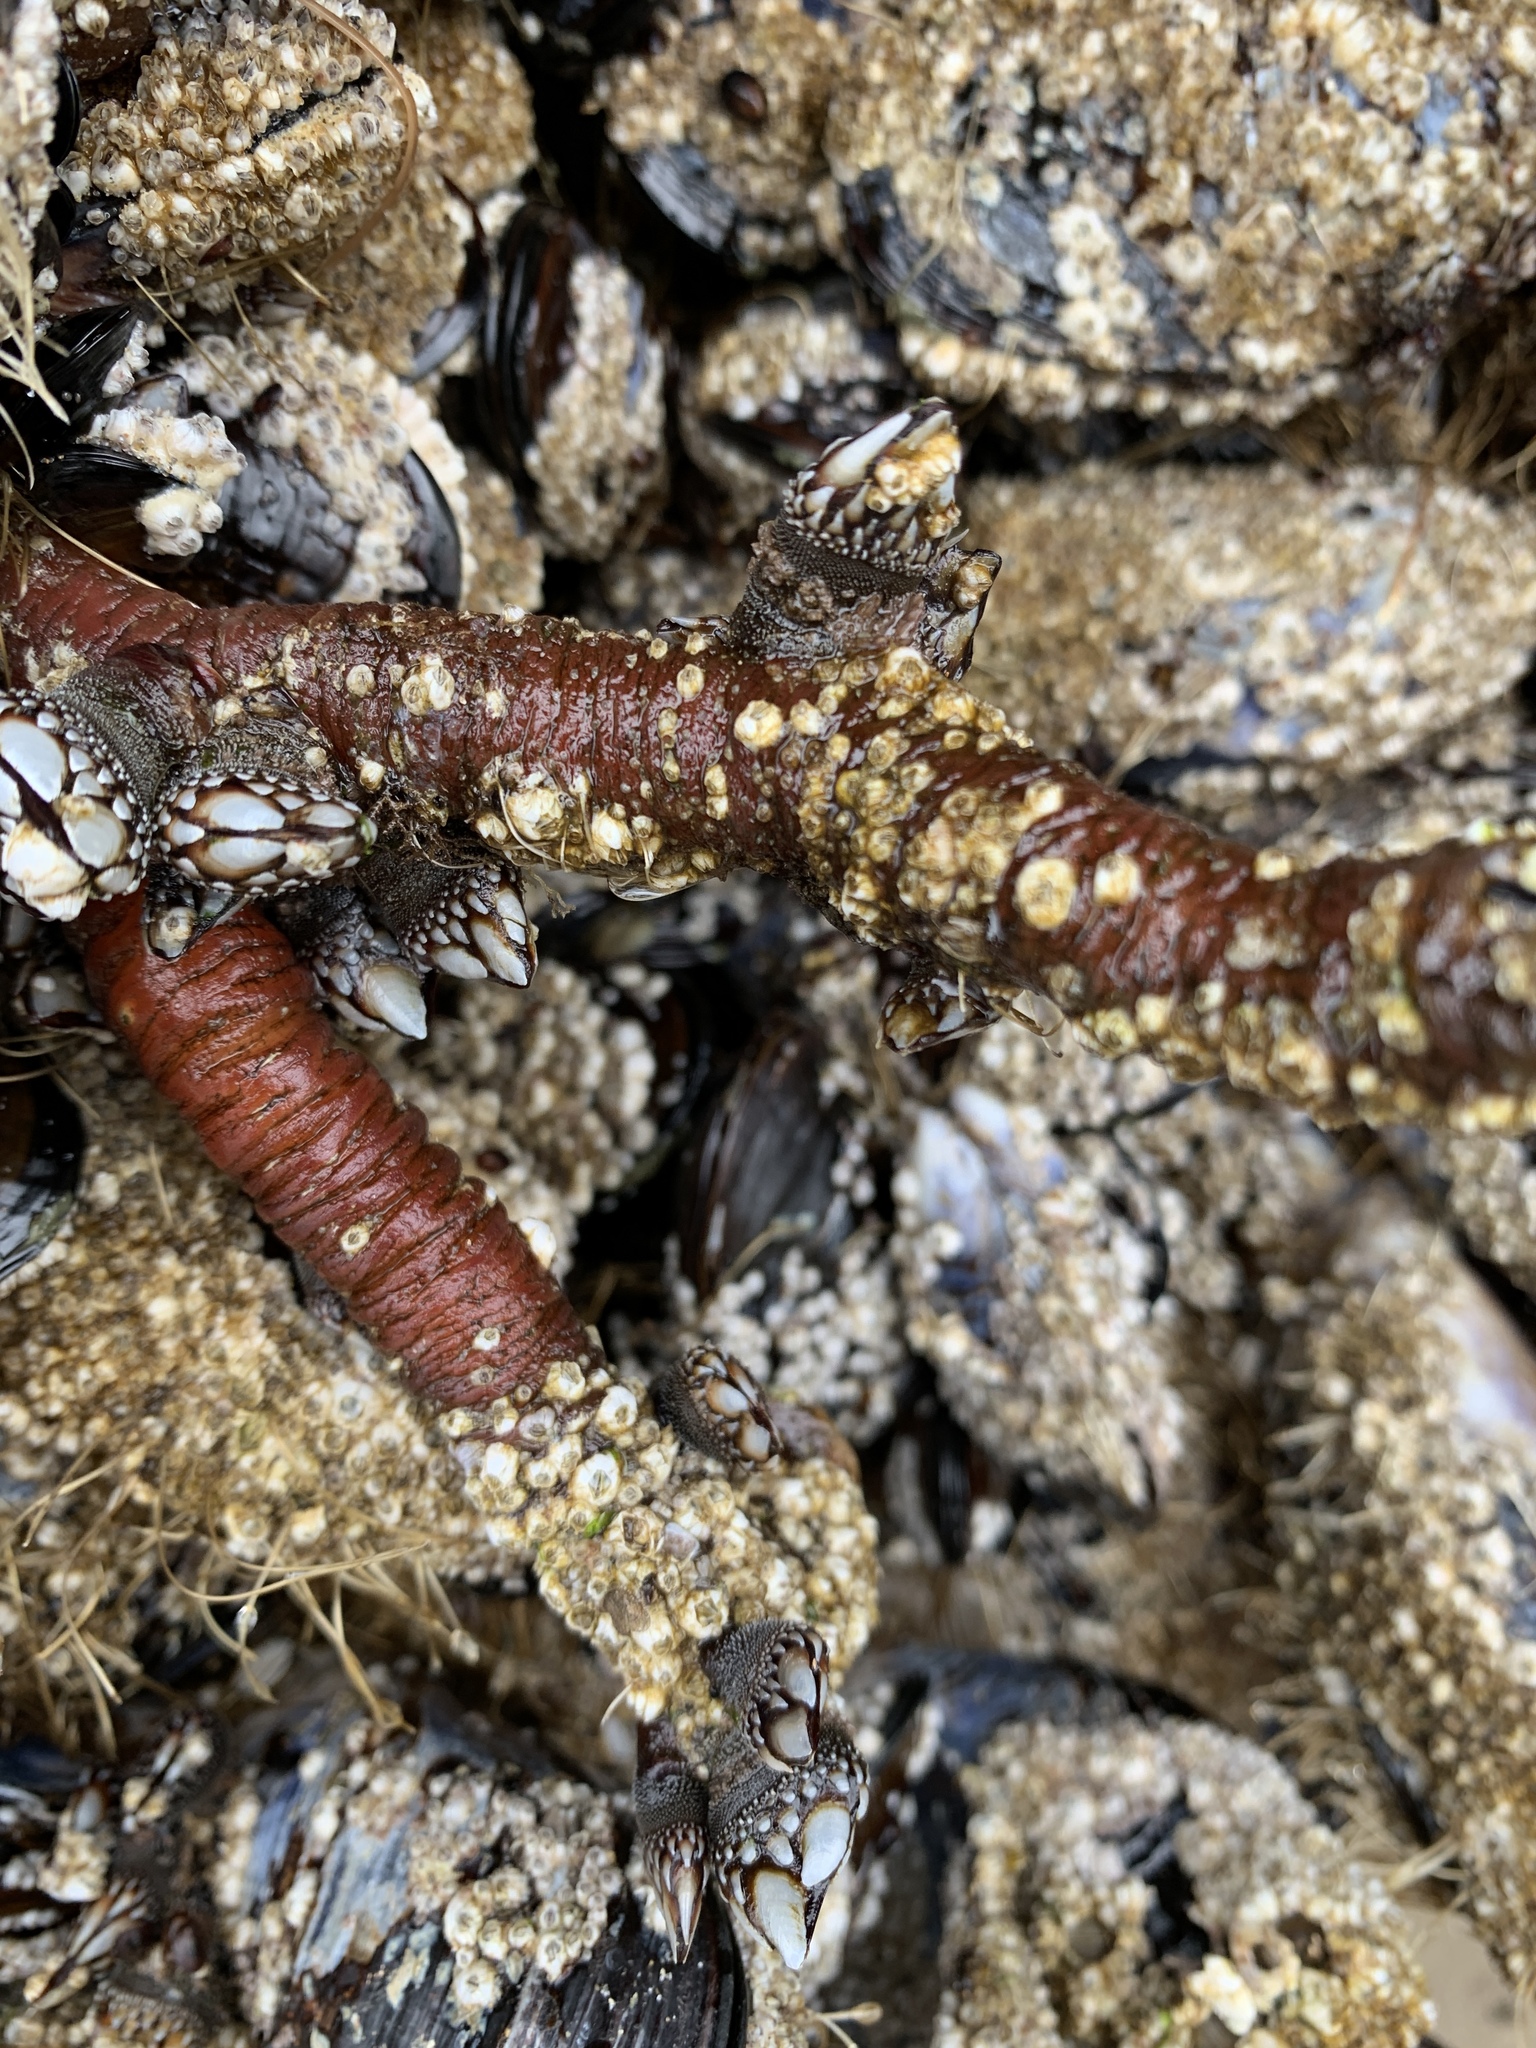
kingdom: Animalia
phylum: Arthropoda
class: Maxillopoda
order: Pedunculata
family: Pollicipedidae
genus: Pollicipes
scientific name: Pollicipes polymerus
